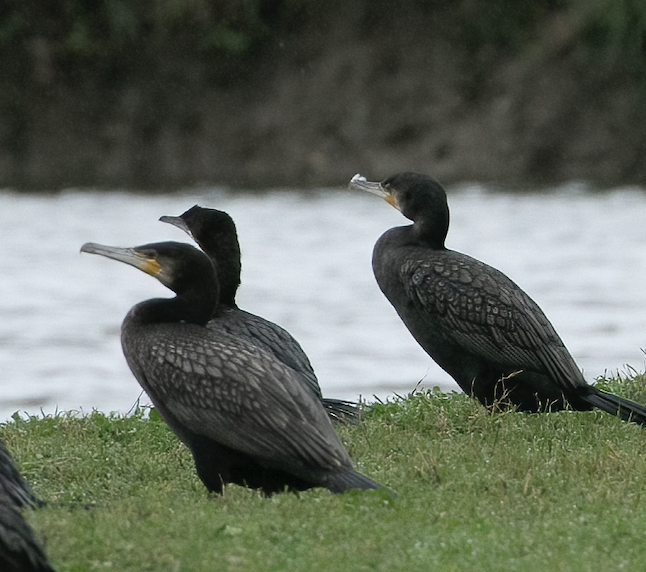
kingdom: Animalia
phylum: Chordata
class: Aves
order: Suliformes
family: Phalacrocoracidae
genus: Phalacrocorax
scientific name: Phalacrocorax carbo
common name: Great cormorant
